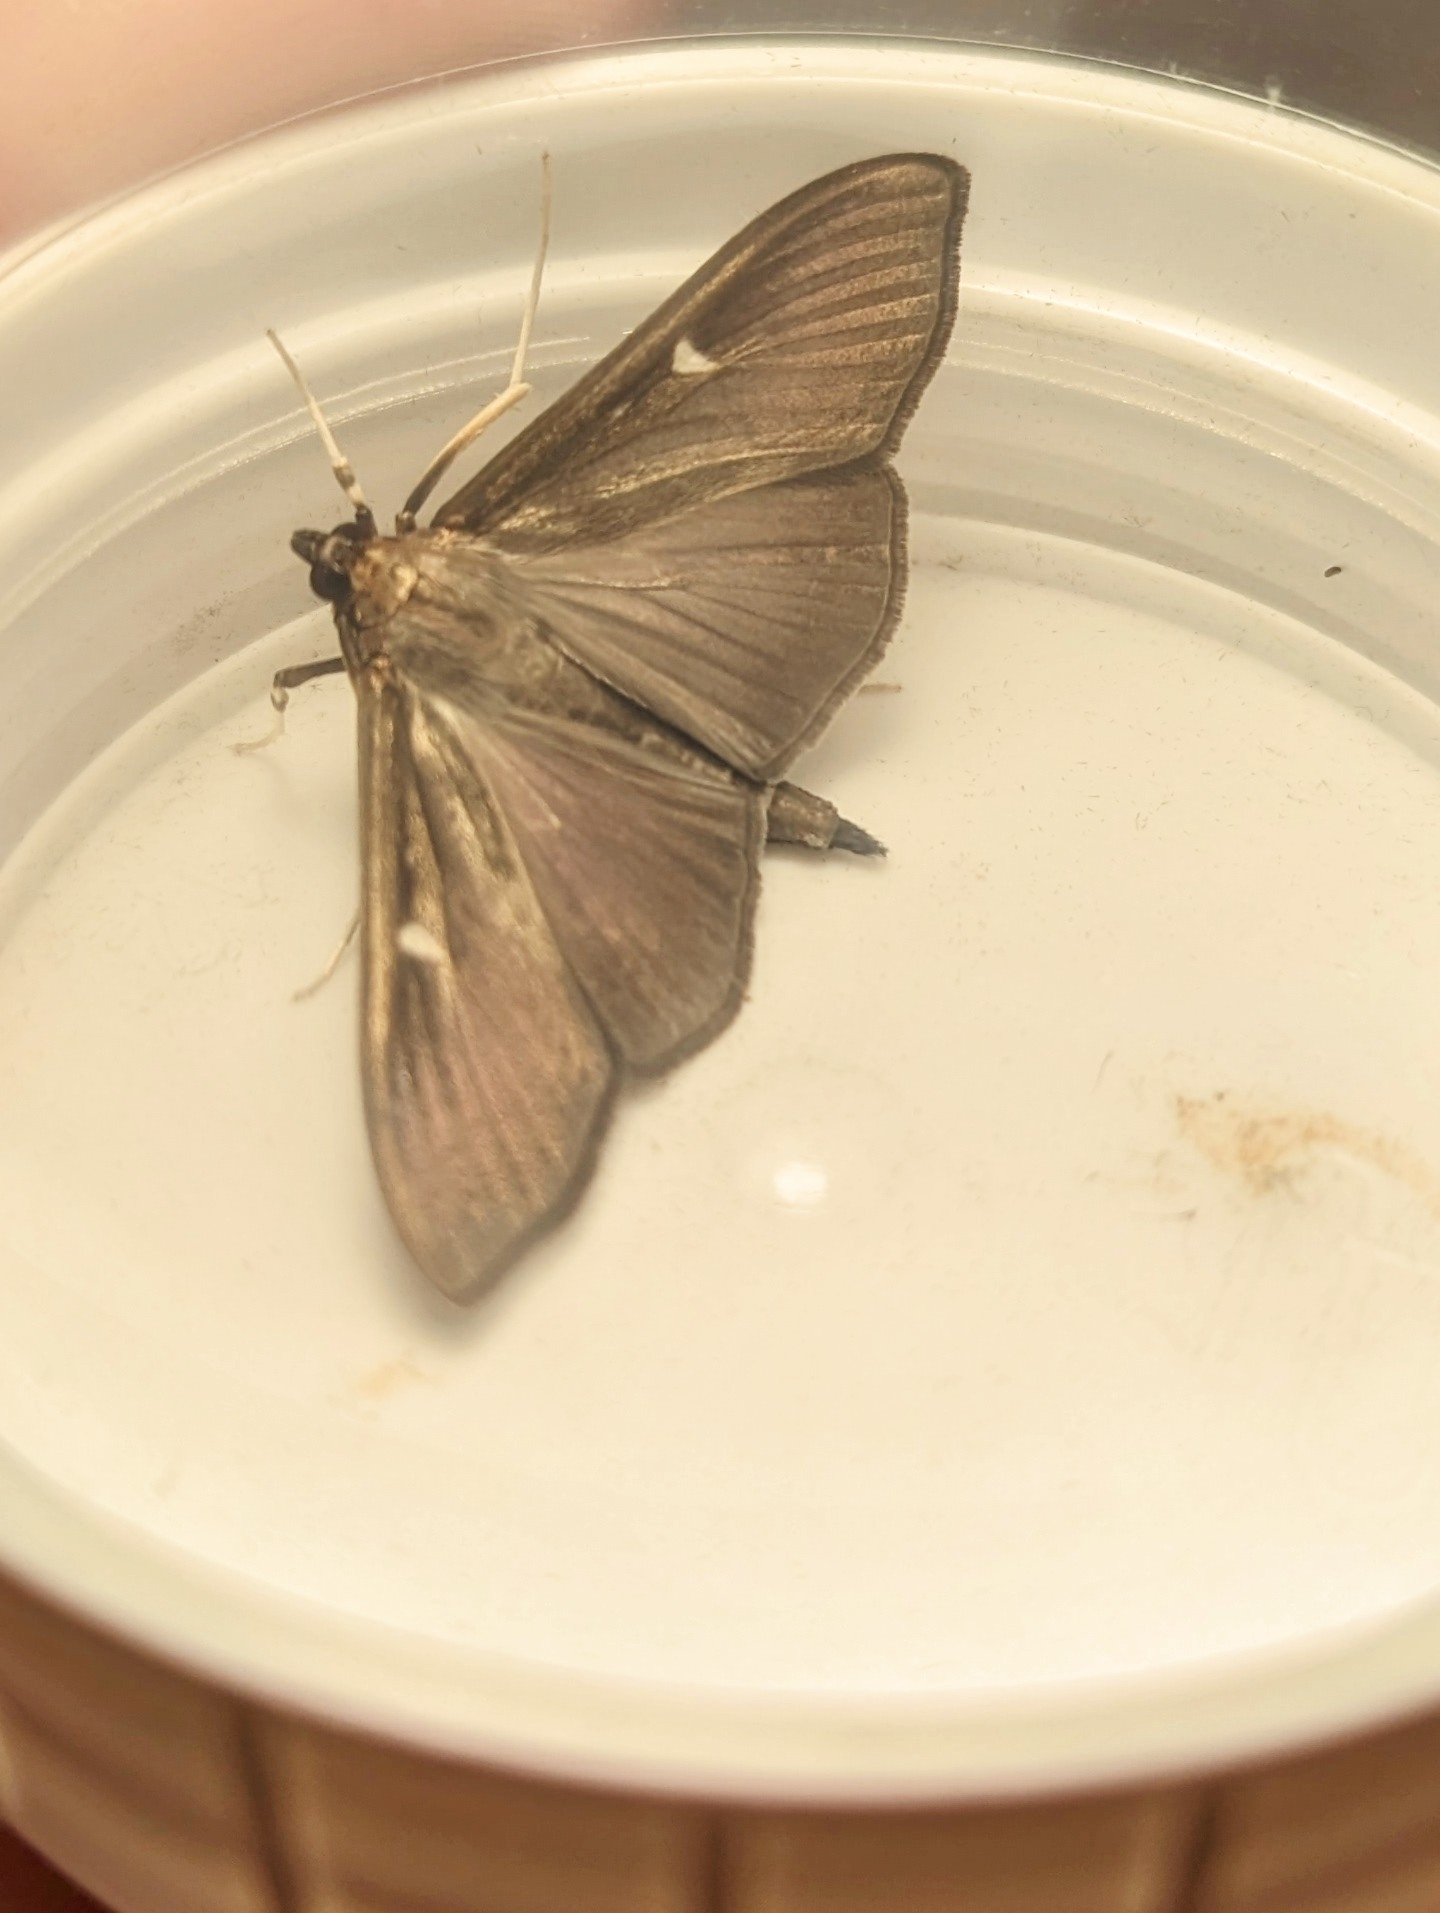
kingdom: Animalia
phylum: Arthropoda
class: Insecta
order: Lepidoptera
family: Crambidae
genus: Cydalima
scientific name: Cydalima perspectalis
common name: Box tree moth
